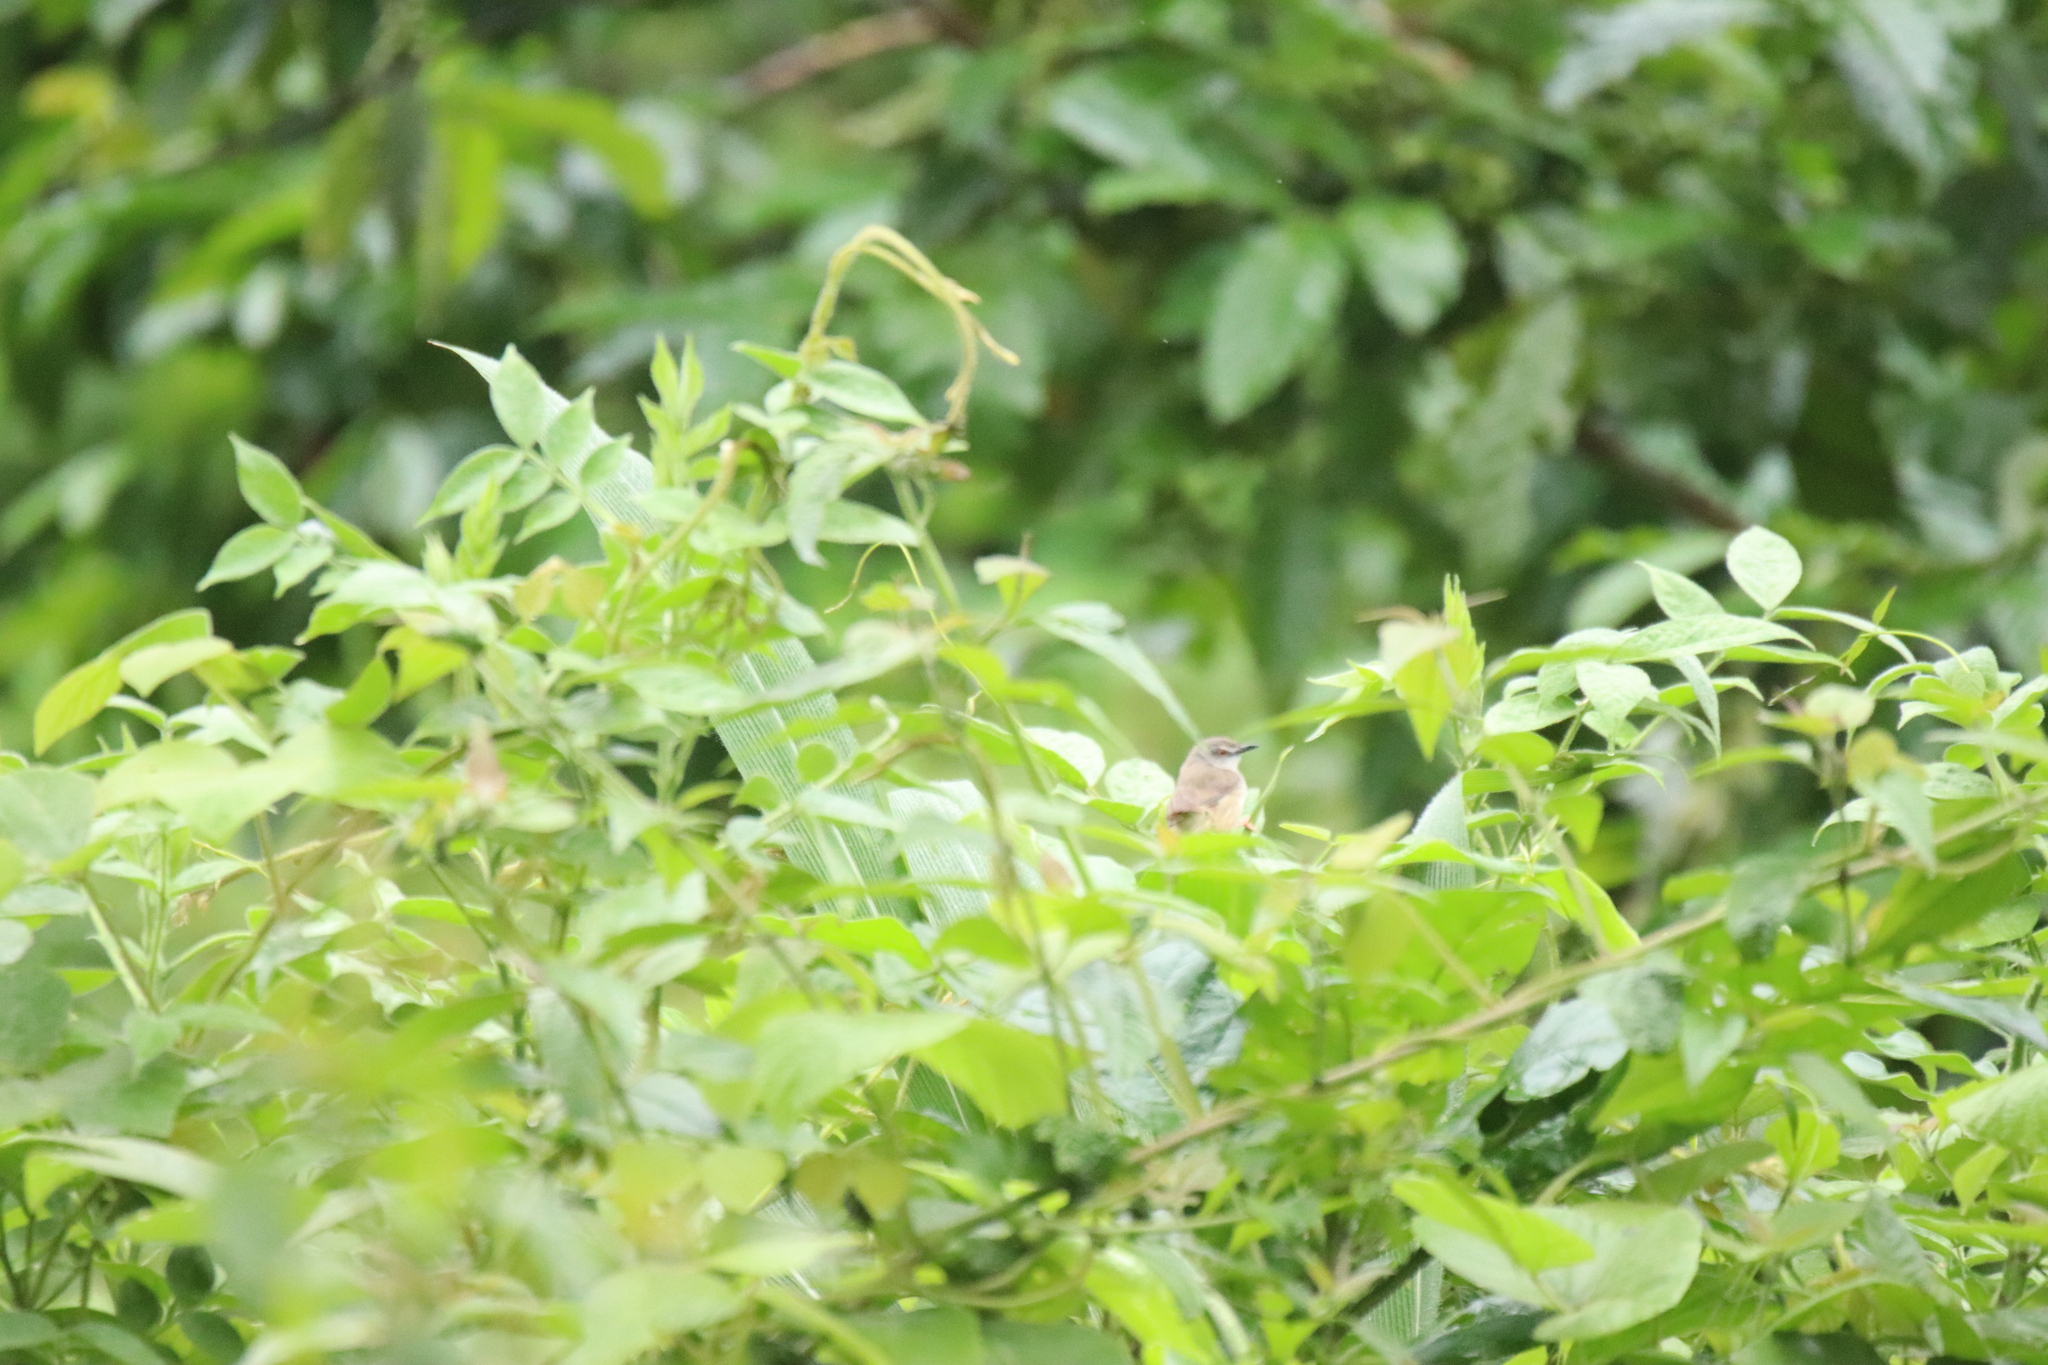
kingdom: Animalia
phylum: Chordata
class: Aves
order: Passeriformes
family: Cisticolidae
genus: Prinia
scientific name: Prinia subflava
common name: Tawny-flanked prinia
